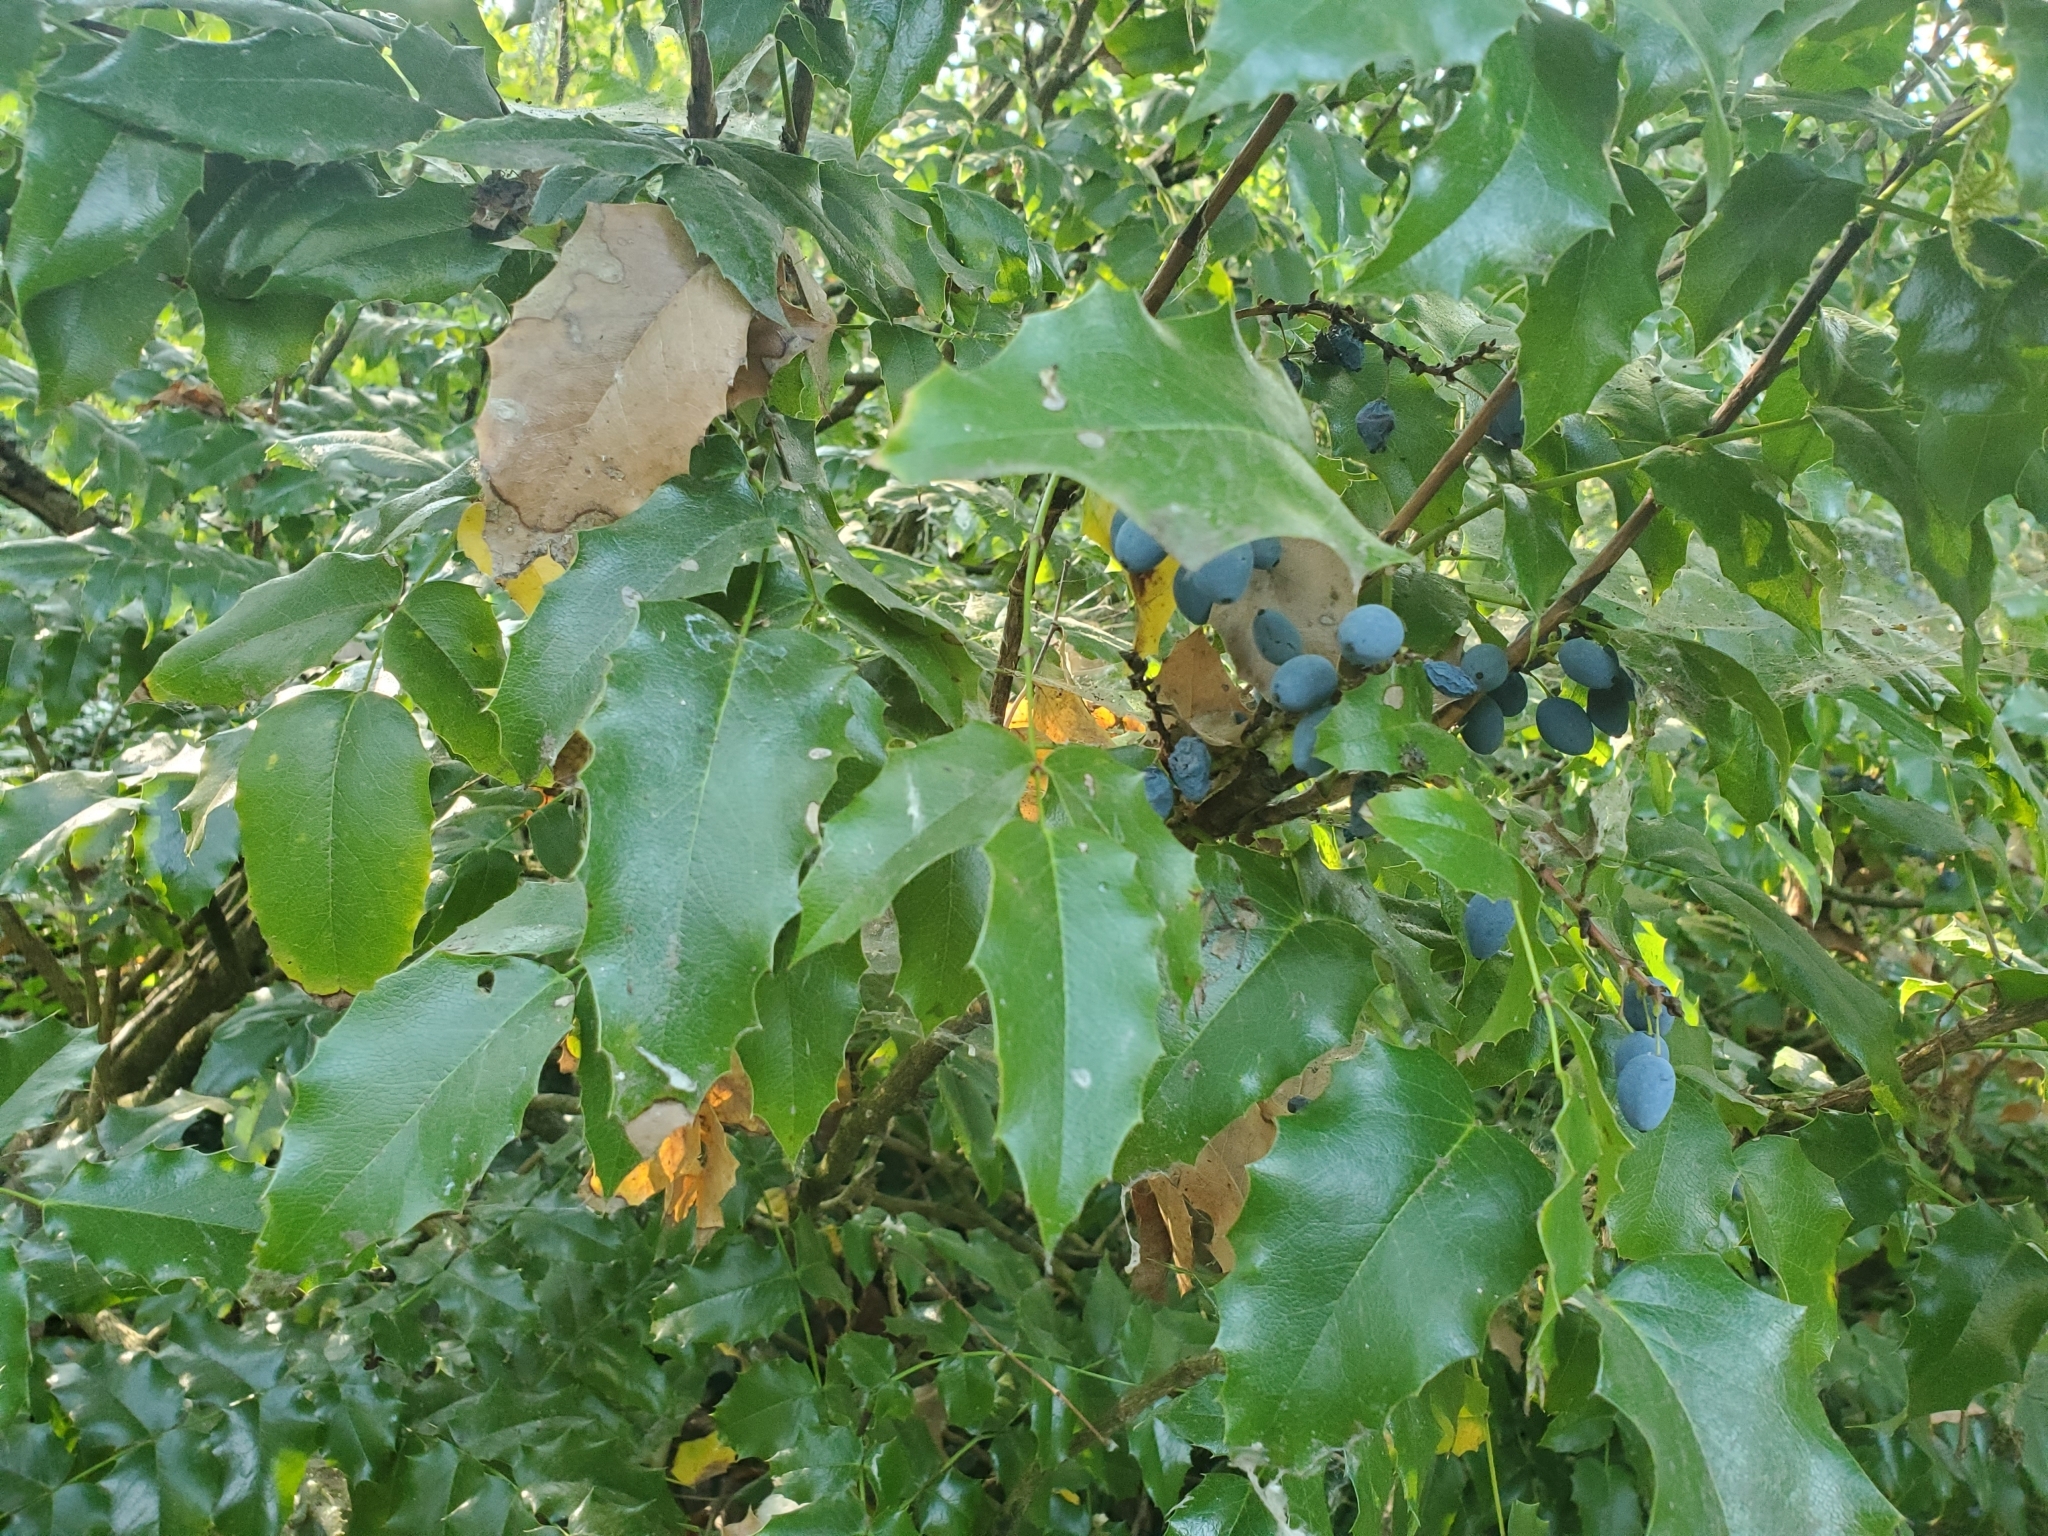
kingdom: Plantae
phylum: Tracheophyta
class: Magnoliopsida
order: Ranunculales
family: Berberidaceae
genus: Mahonia
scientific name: Mahonia aquifolium
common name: Oregon-grape
